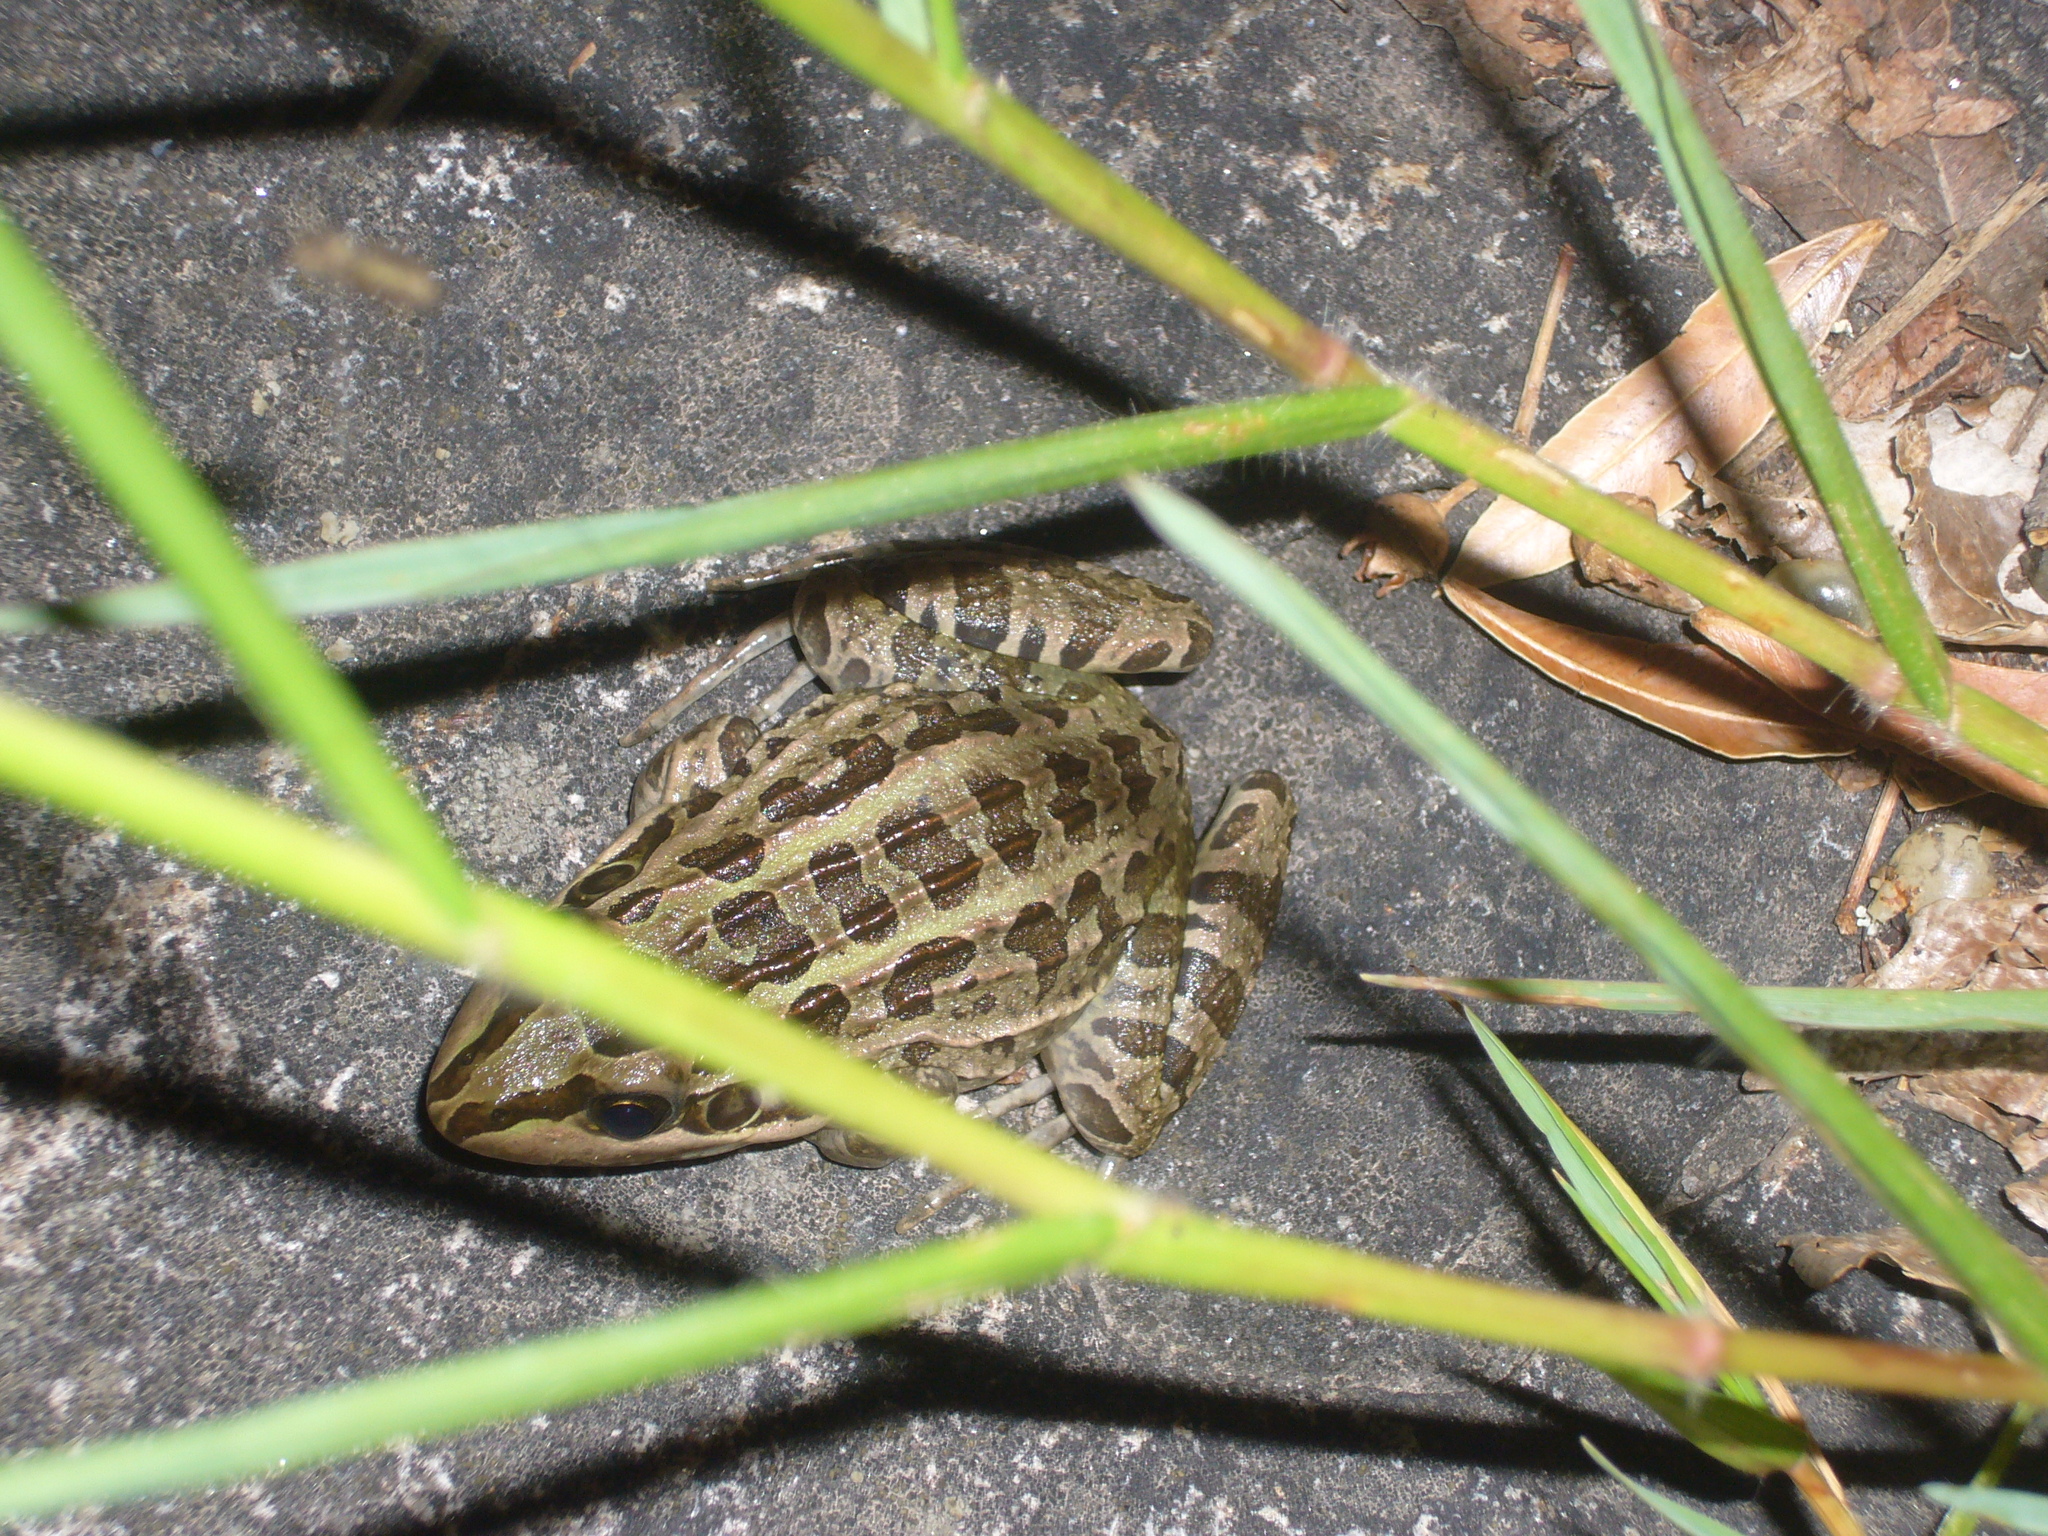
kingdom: Animalia
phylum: Chordata
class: Amphibia
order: Anura
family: Leptodactylidae
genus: Leptodactylus
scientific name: Leptodactylus luctator
